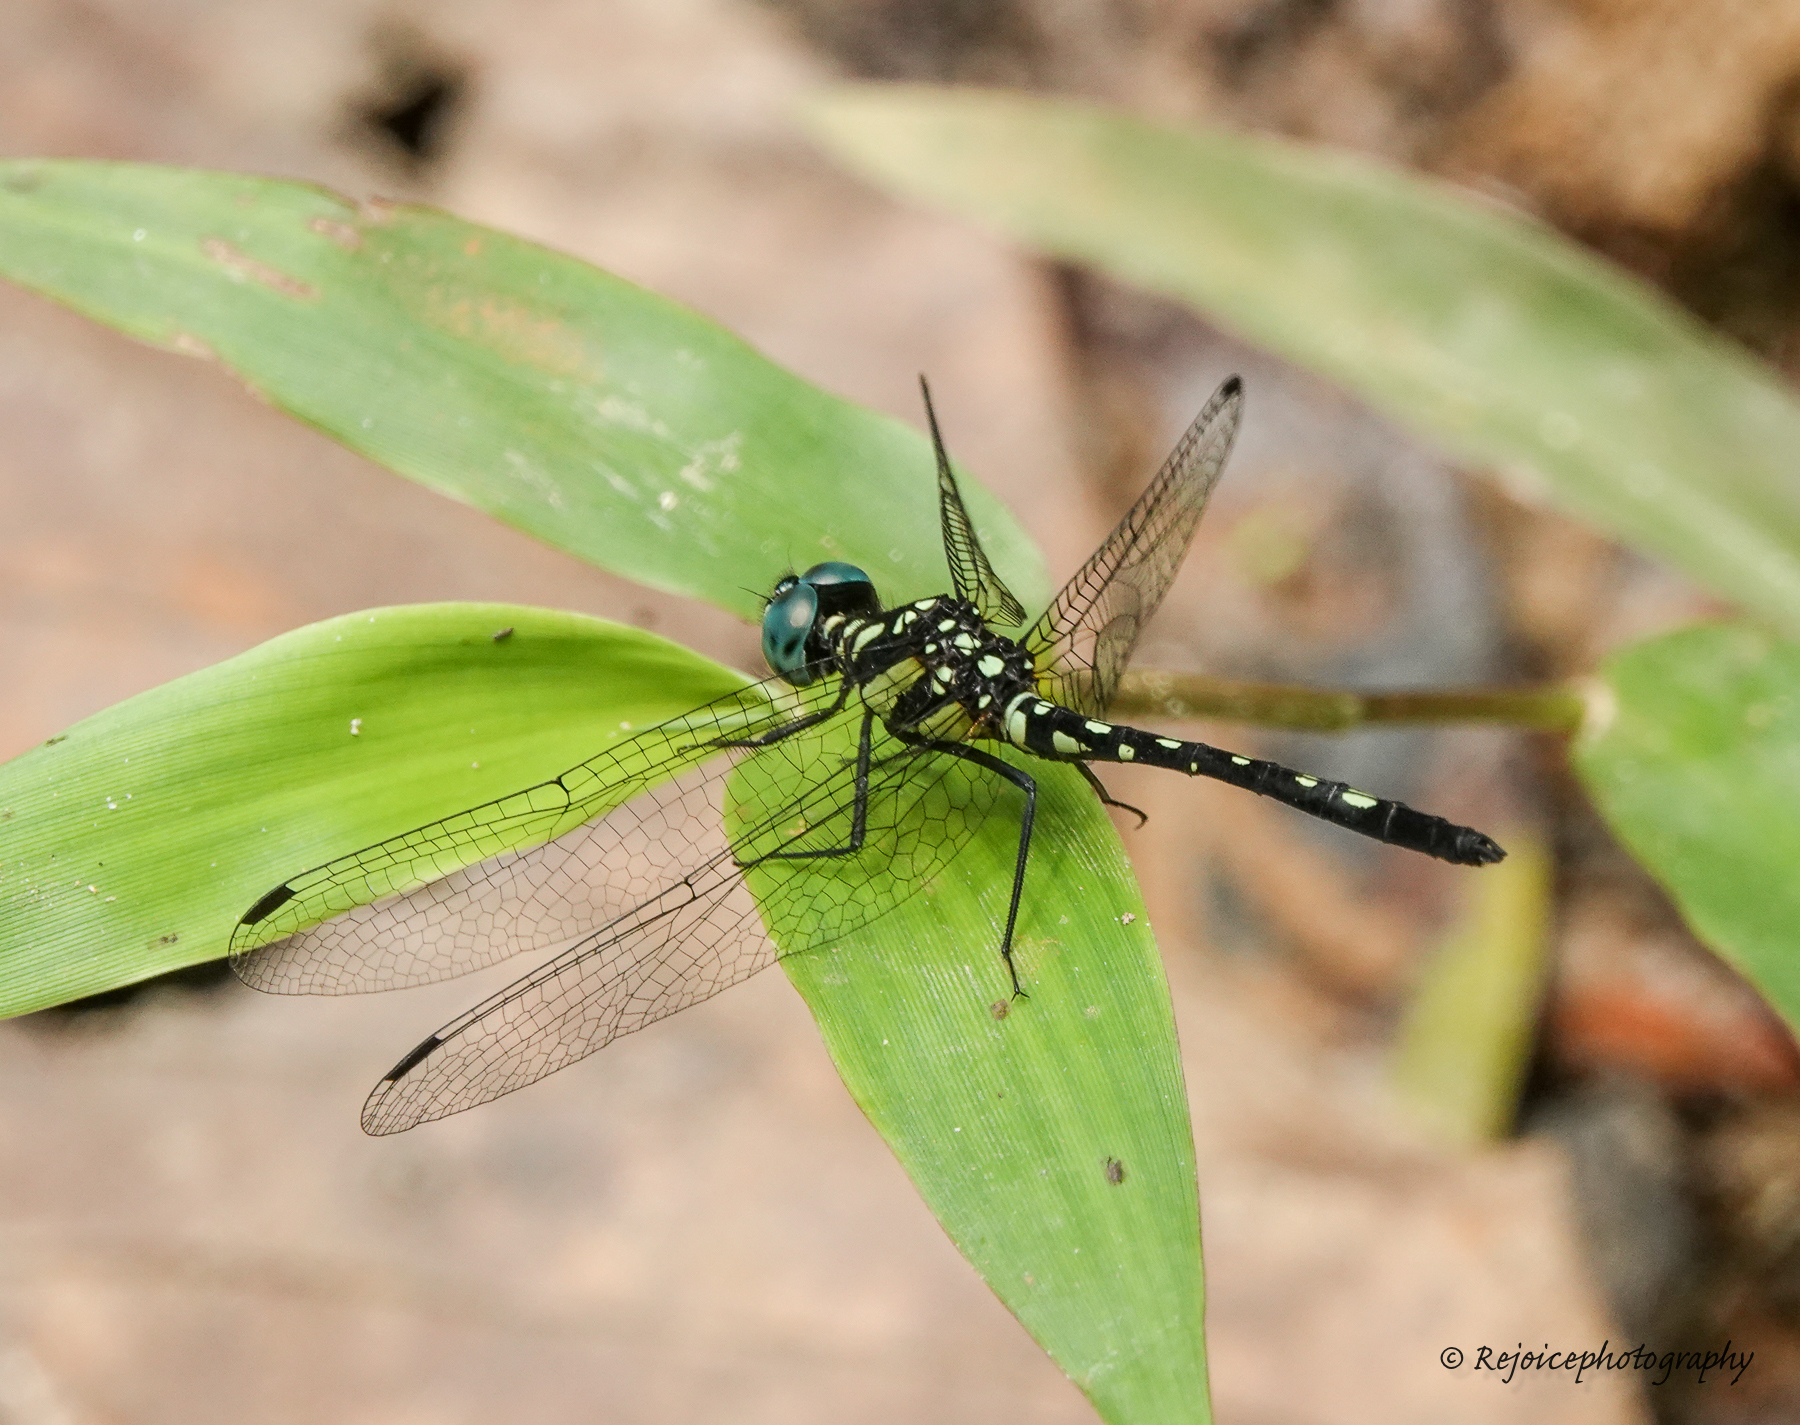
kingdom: Animalia
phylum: Arthropoda
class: Insecta
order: Odonata
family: Libellulidae
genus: Phyllothemis
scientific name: Phyllothemis eltoni
